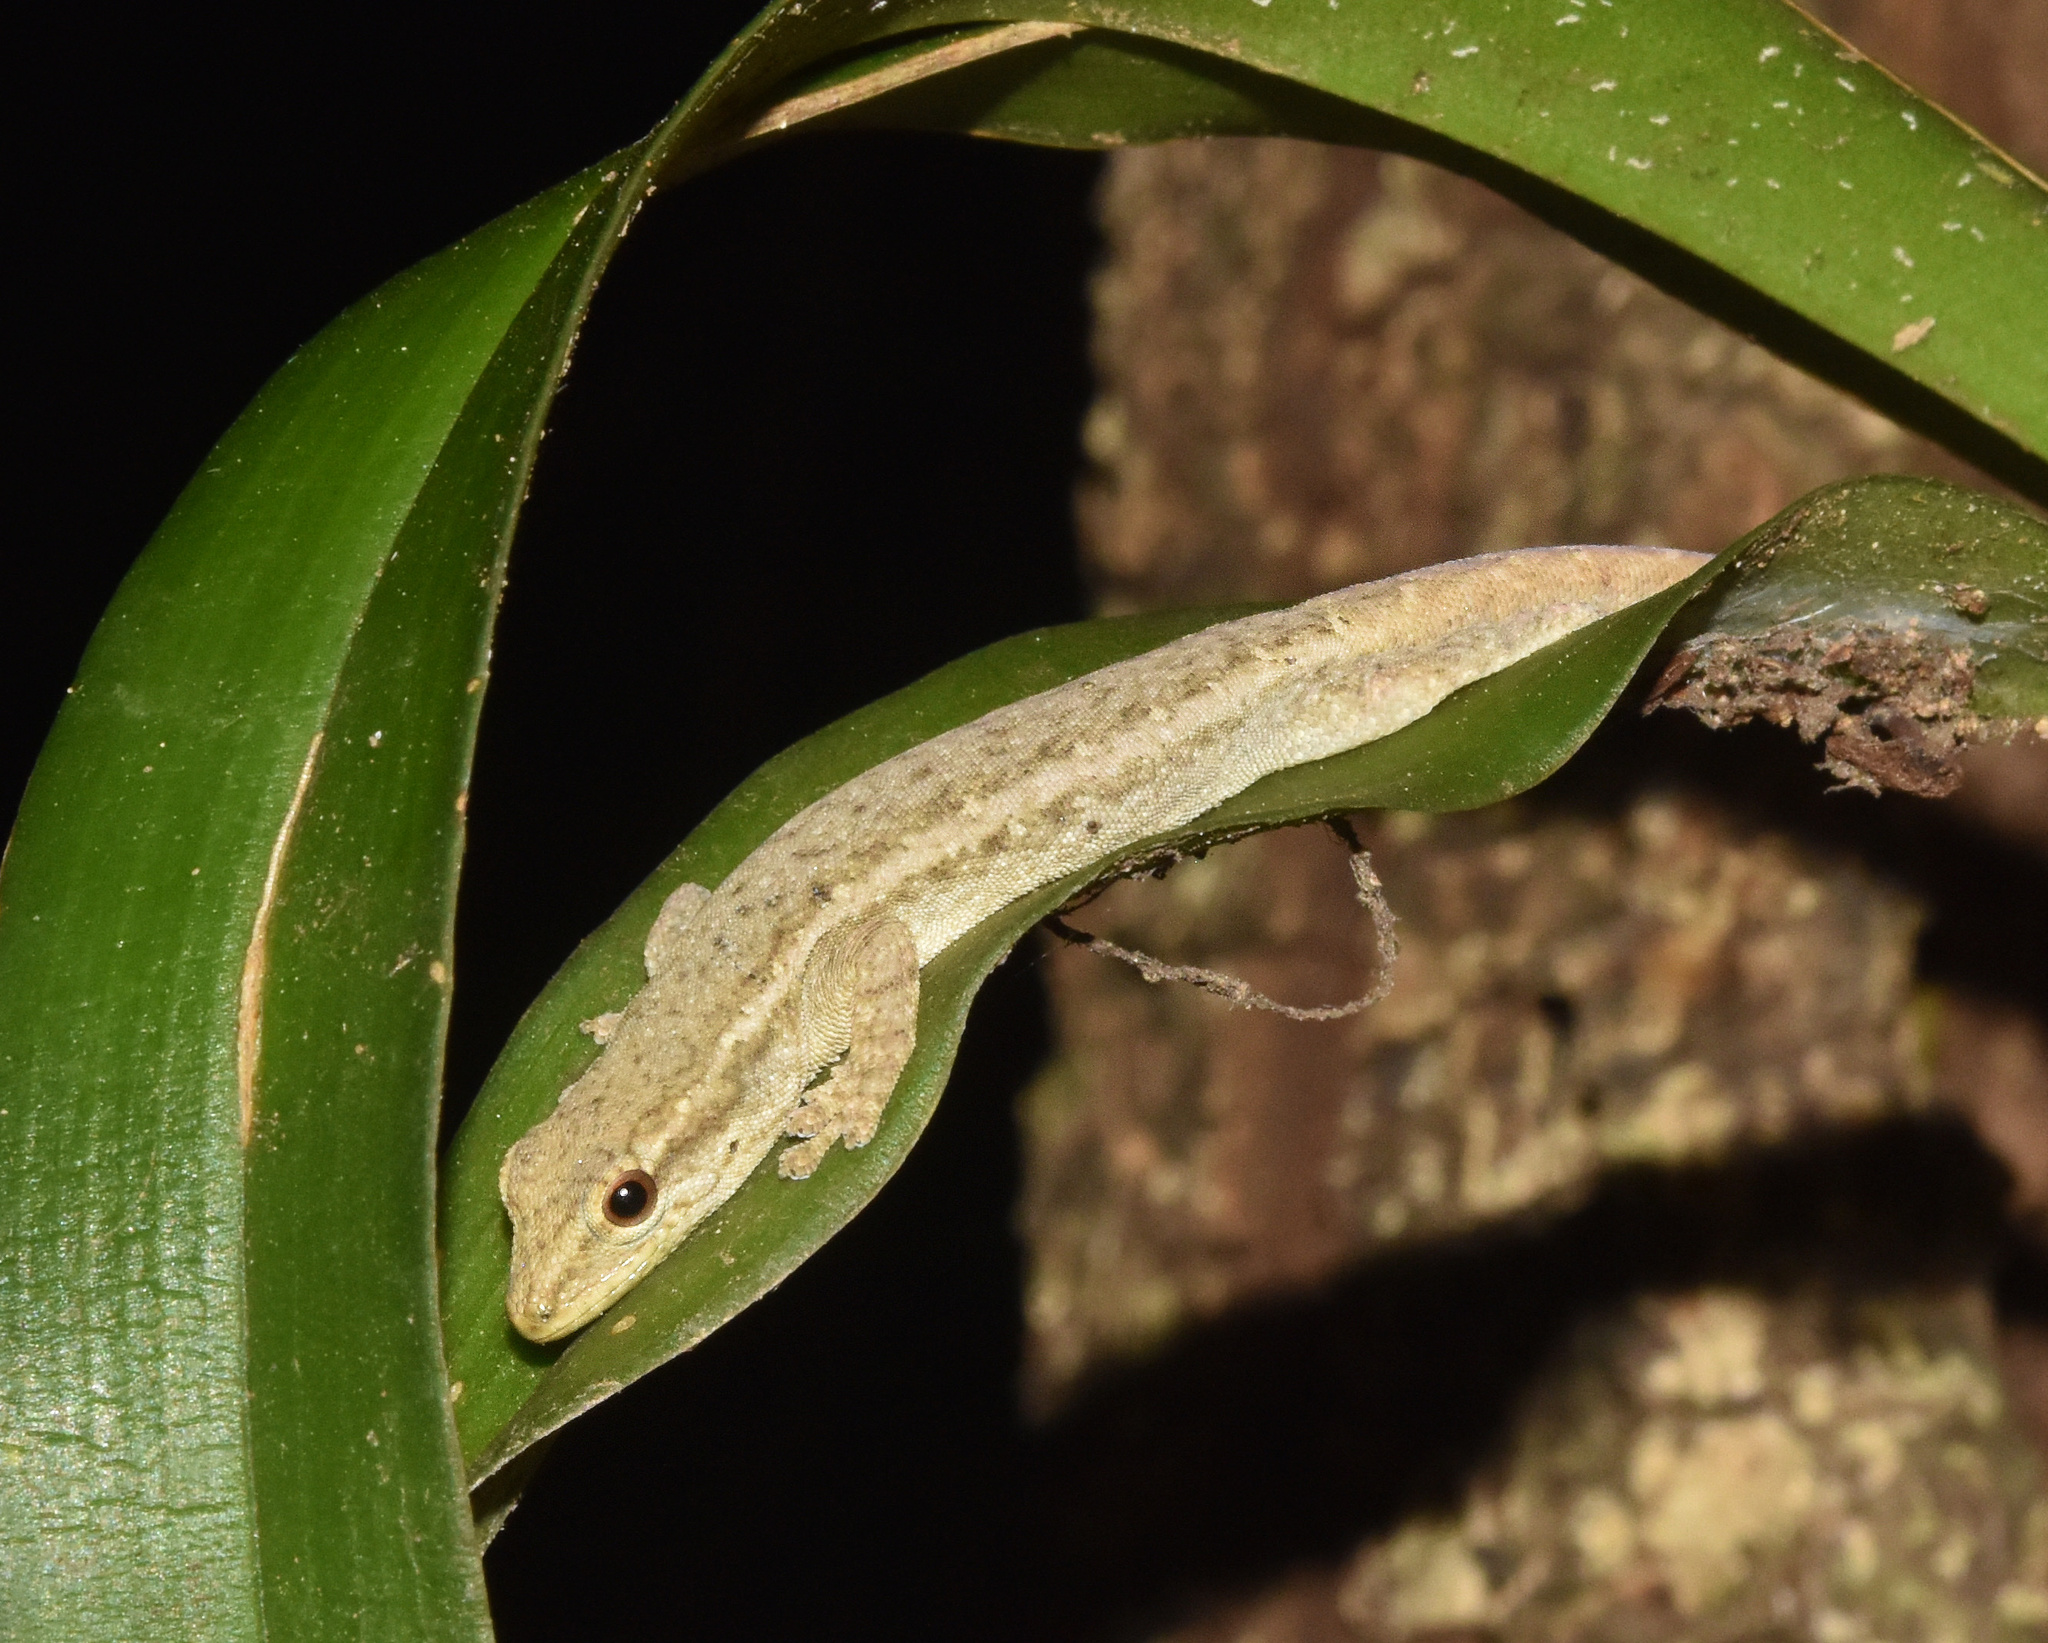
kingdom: Animalia
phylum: Chordata
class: Squamata
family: Gekkonidae
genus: Lygodactylus
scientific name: Lygodactylus capensis
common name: Cape dwarf gecko
